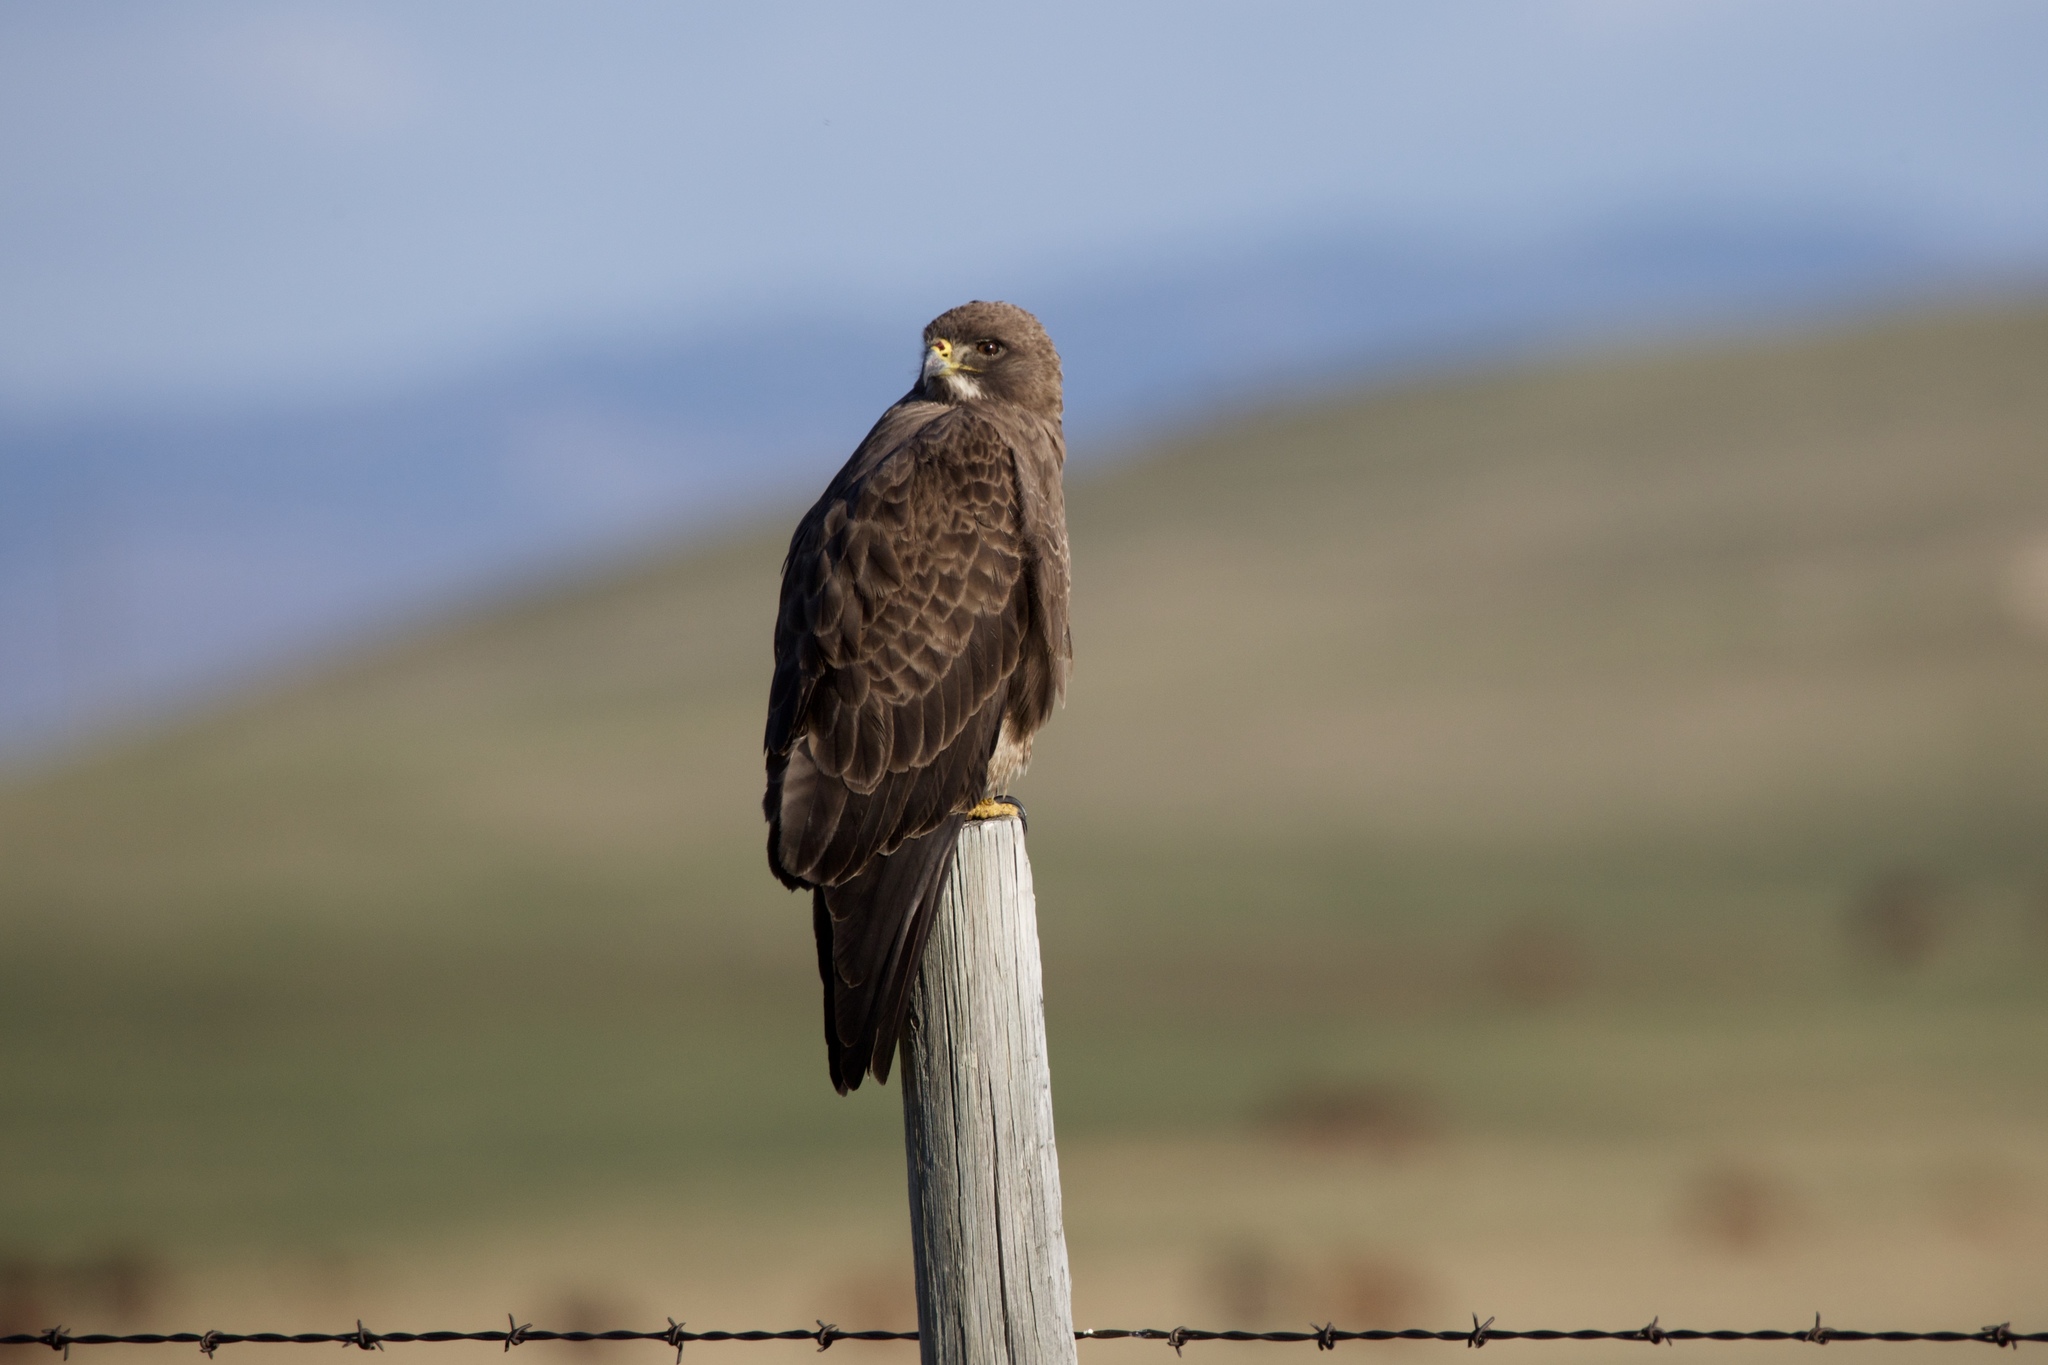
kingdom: Animalia
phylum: Chordata
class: Aves
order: Accipitriformes
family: Accipitridae
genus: Buteo
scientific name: Buteo swainsoni
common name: Swainson's hawk
